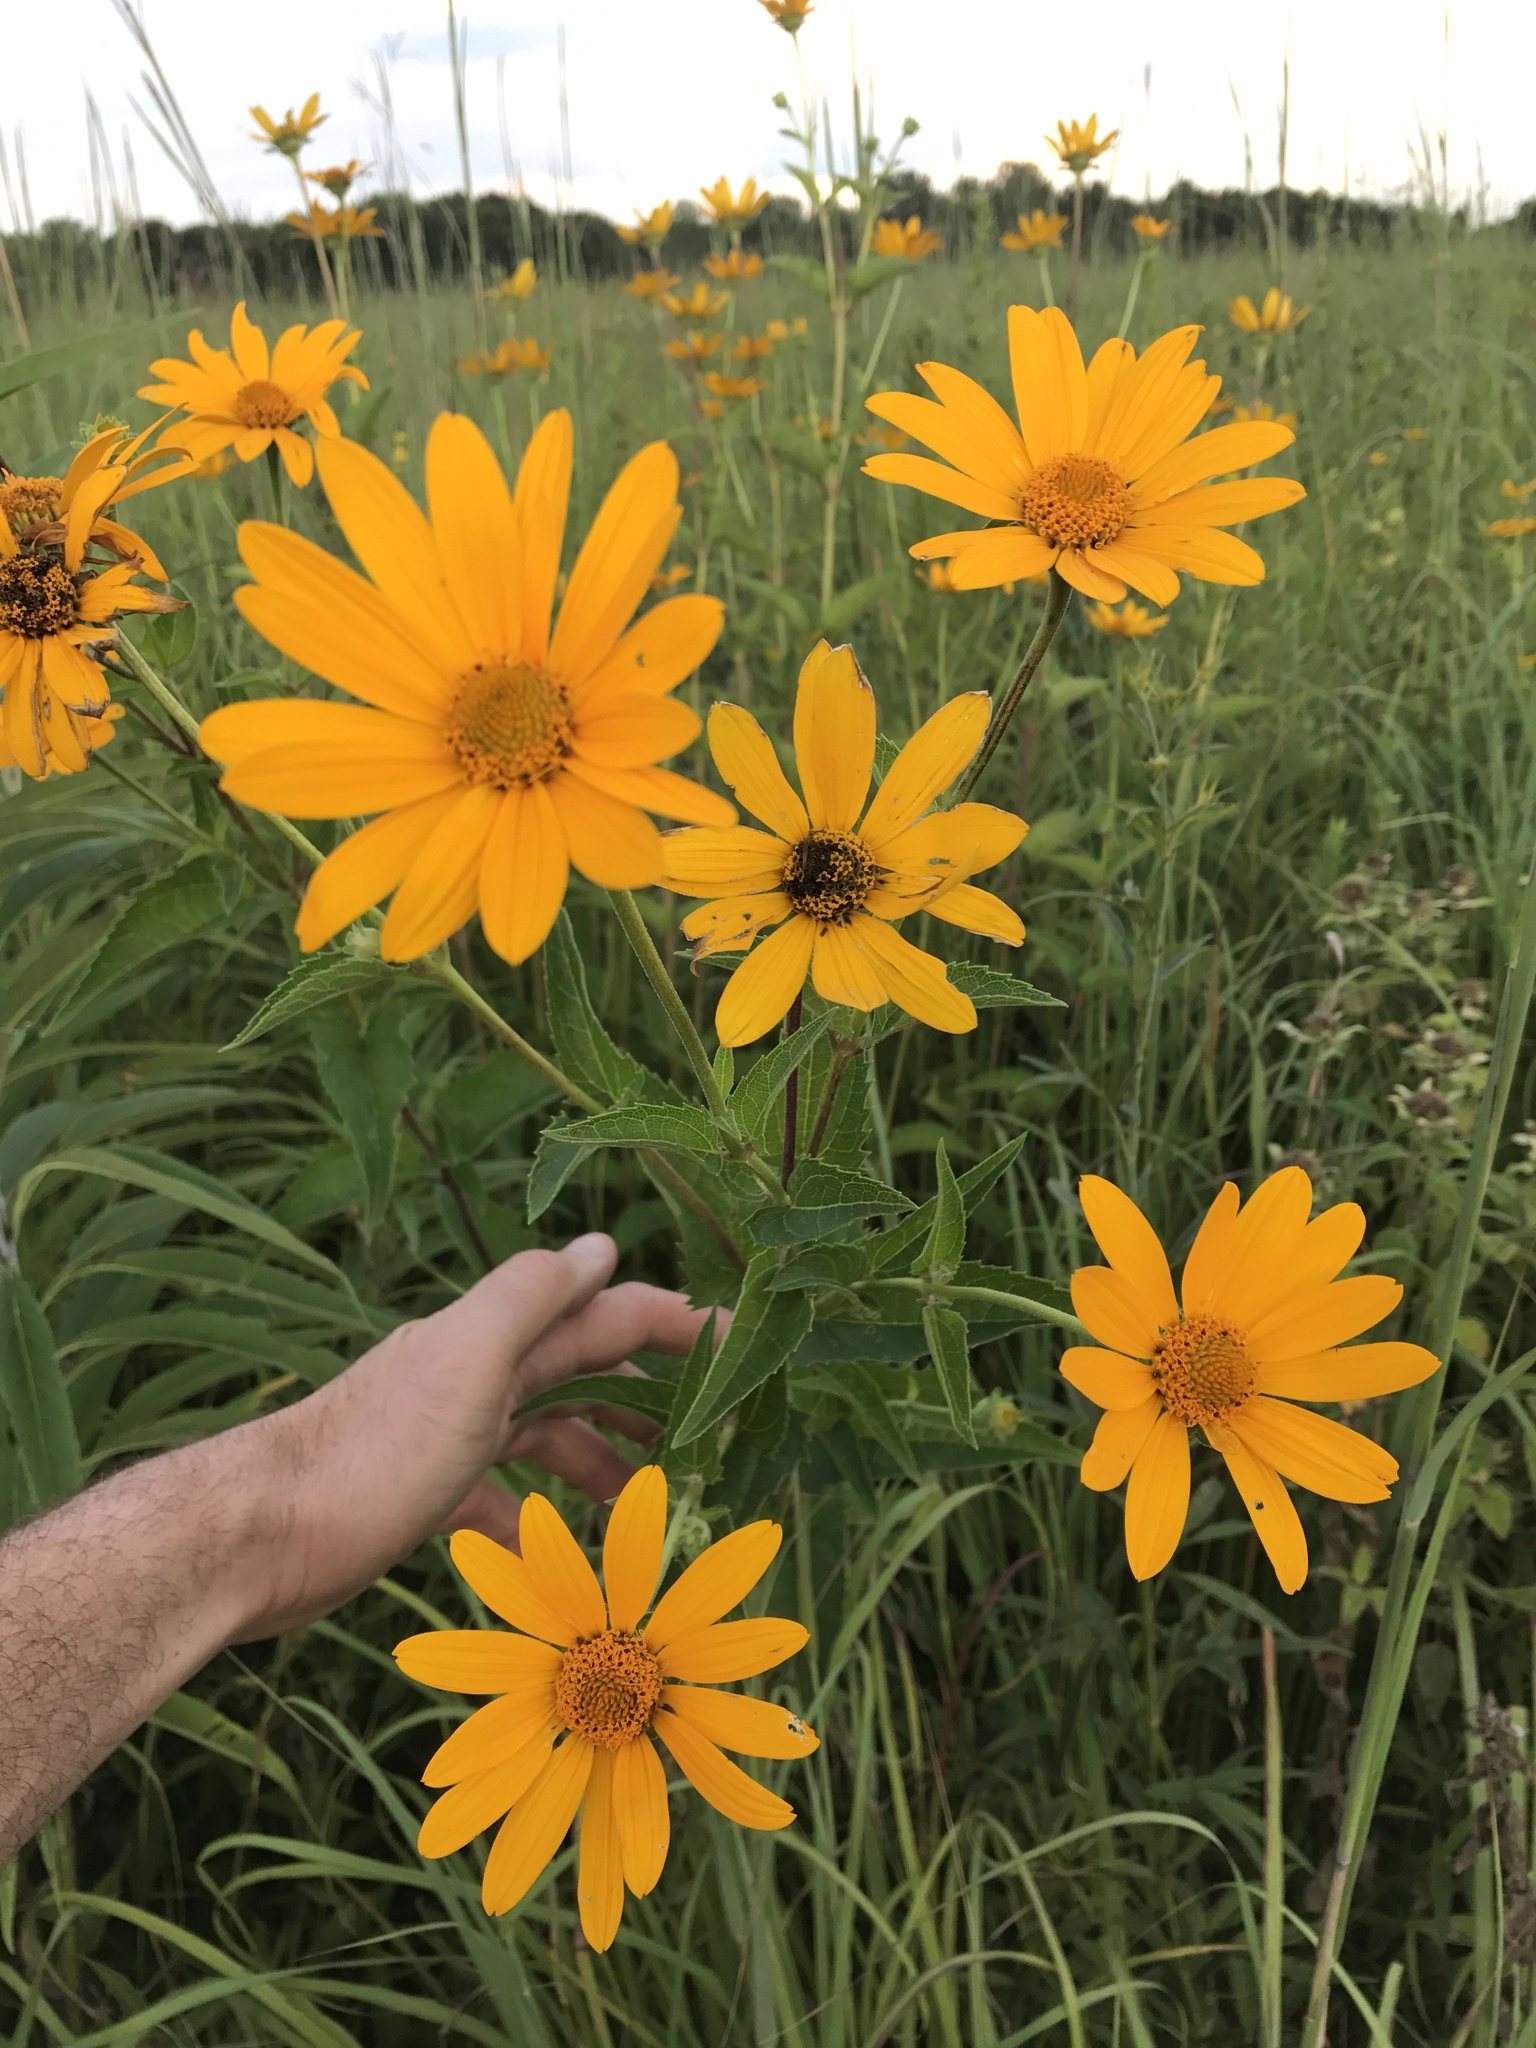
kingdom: Plantae
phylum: Tracheophyta
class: Magnoliopsida
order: Asterales
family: Asteraceae
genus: Heliopsis
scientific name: Heliopsis helianthoides
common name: False sunflower
